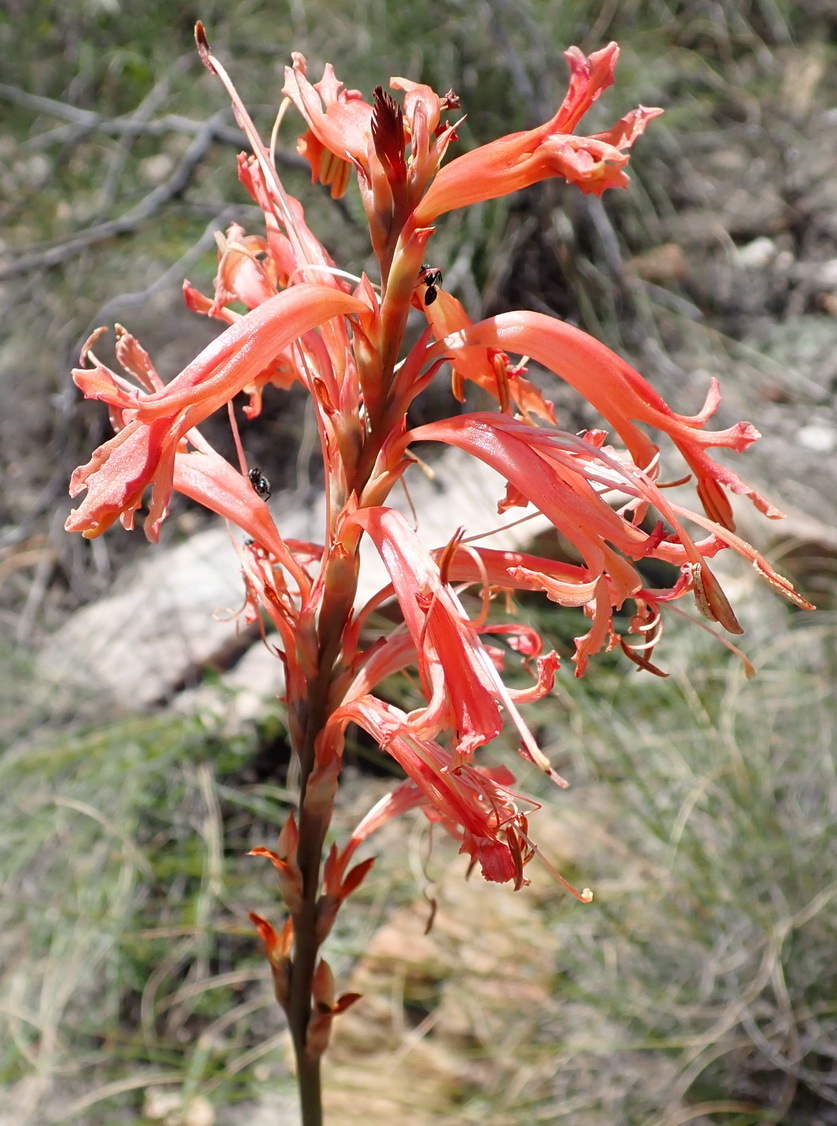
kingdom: Plantae
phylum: Tracheophyta
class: Liliopsida
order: Asparagales
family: Iridaceae
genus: Tritoniopsis
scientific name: Tritoniopsis antholyza
